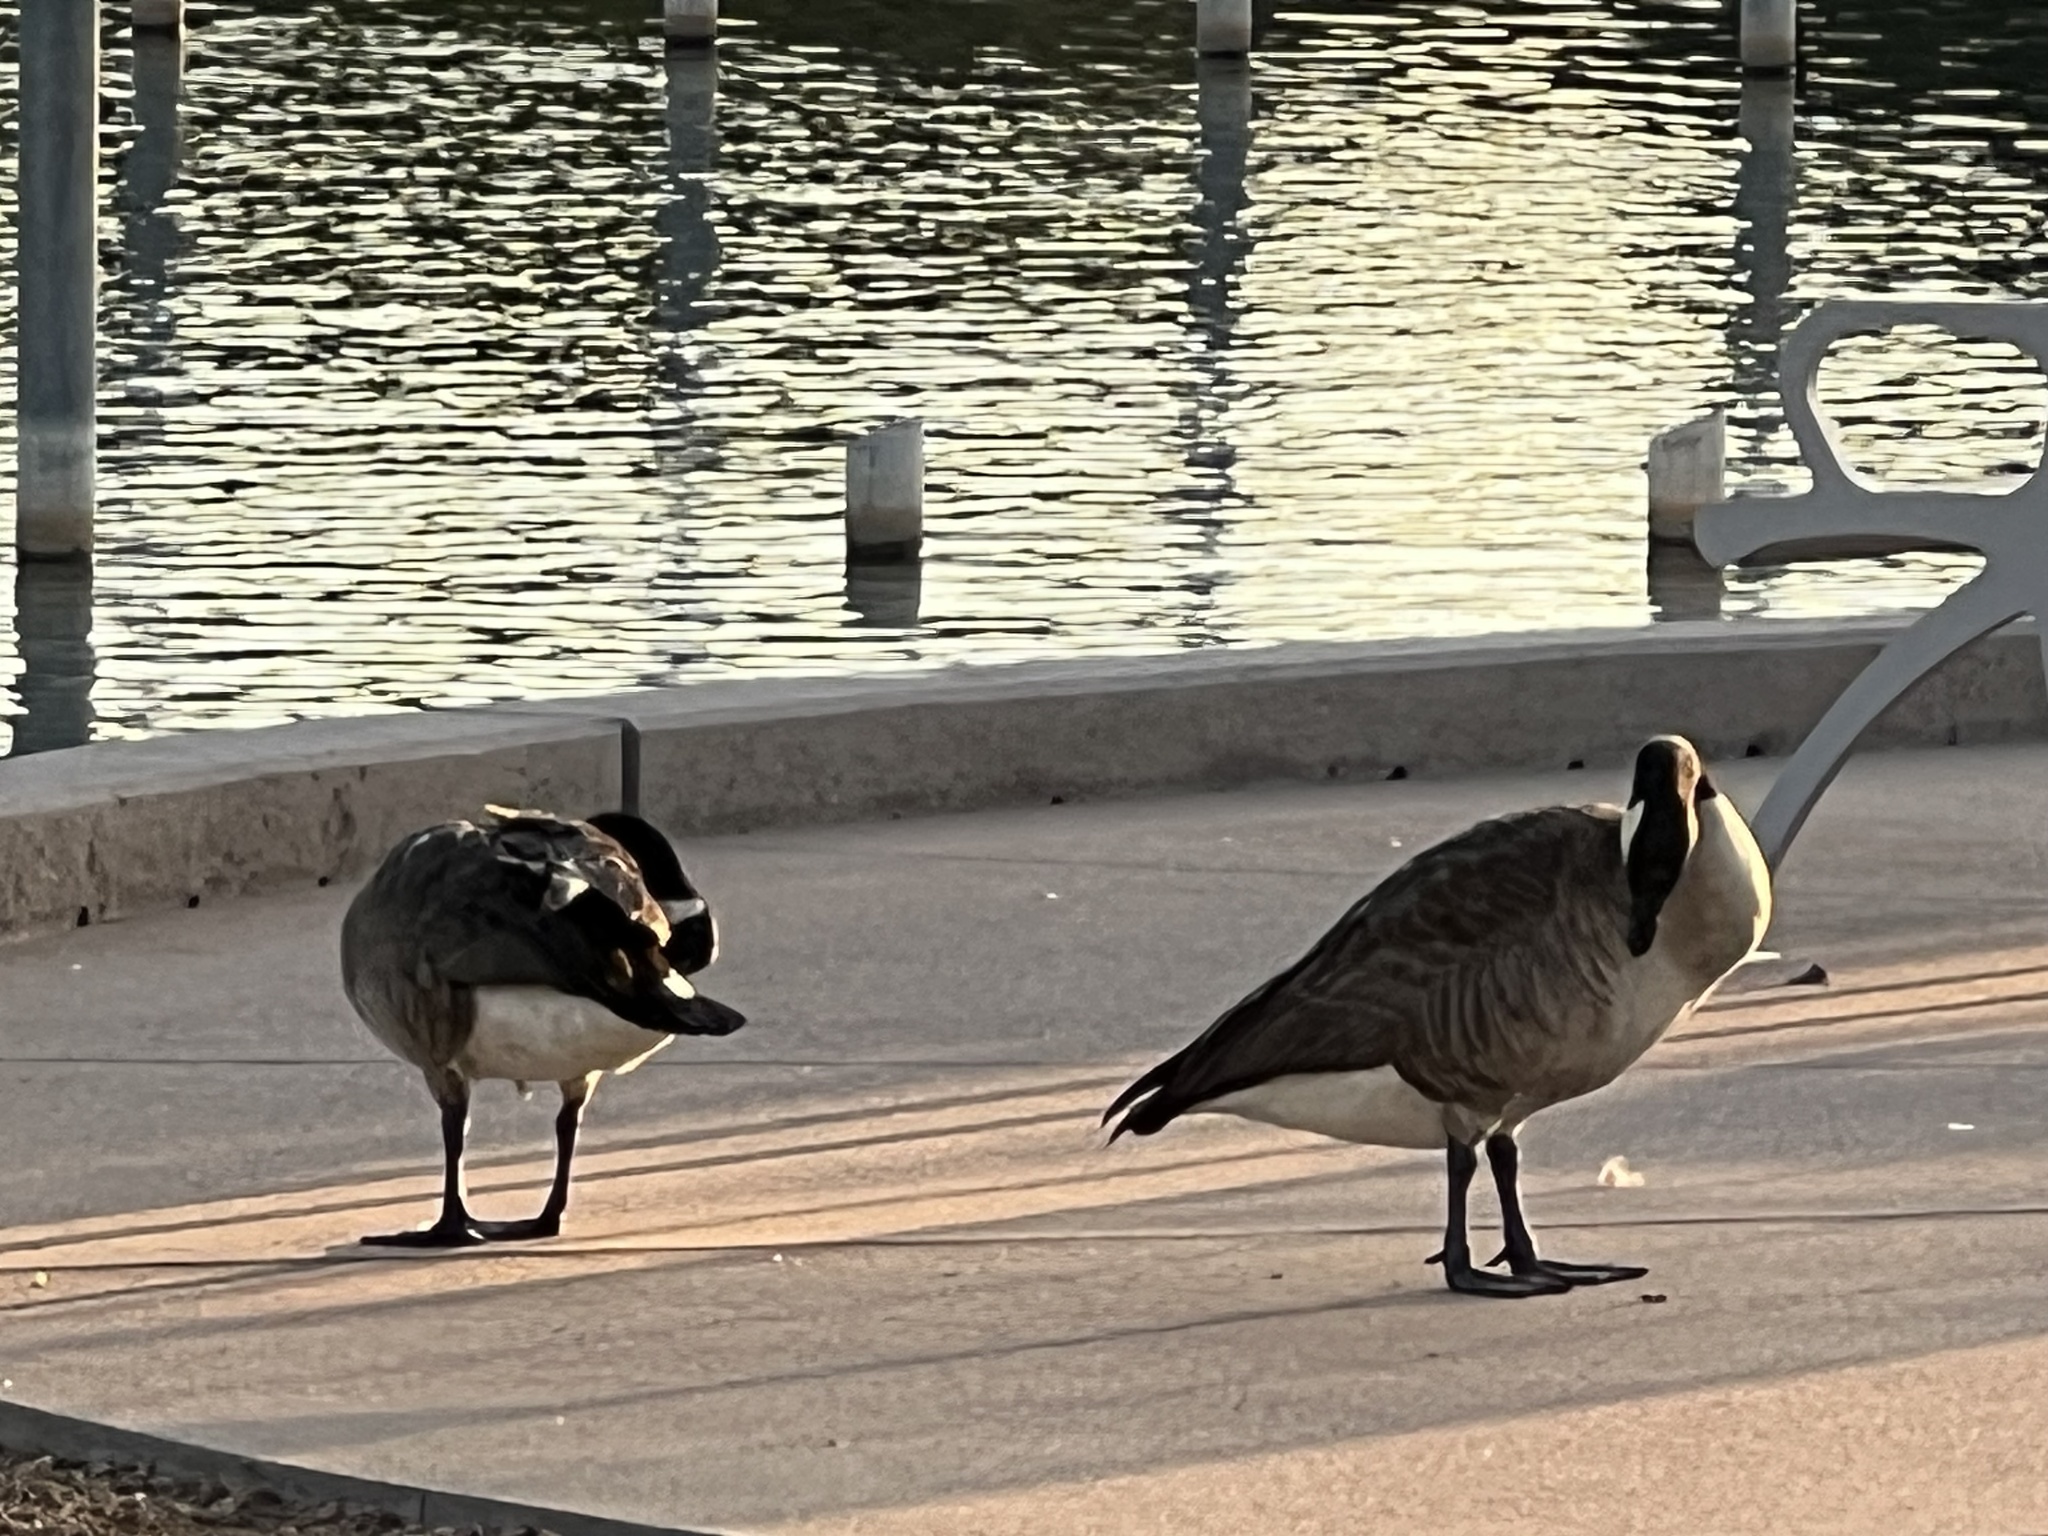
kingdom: Animalia
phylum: Chordata
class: Aves
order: Anseriformes
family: Anatidae
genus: Branta
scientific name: Branta canadensis
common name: Canada goose
